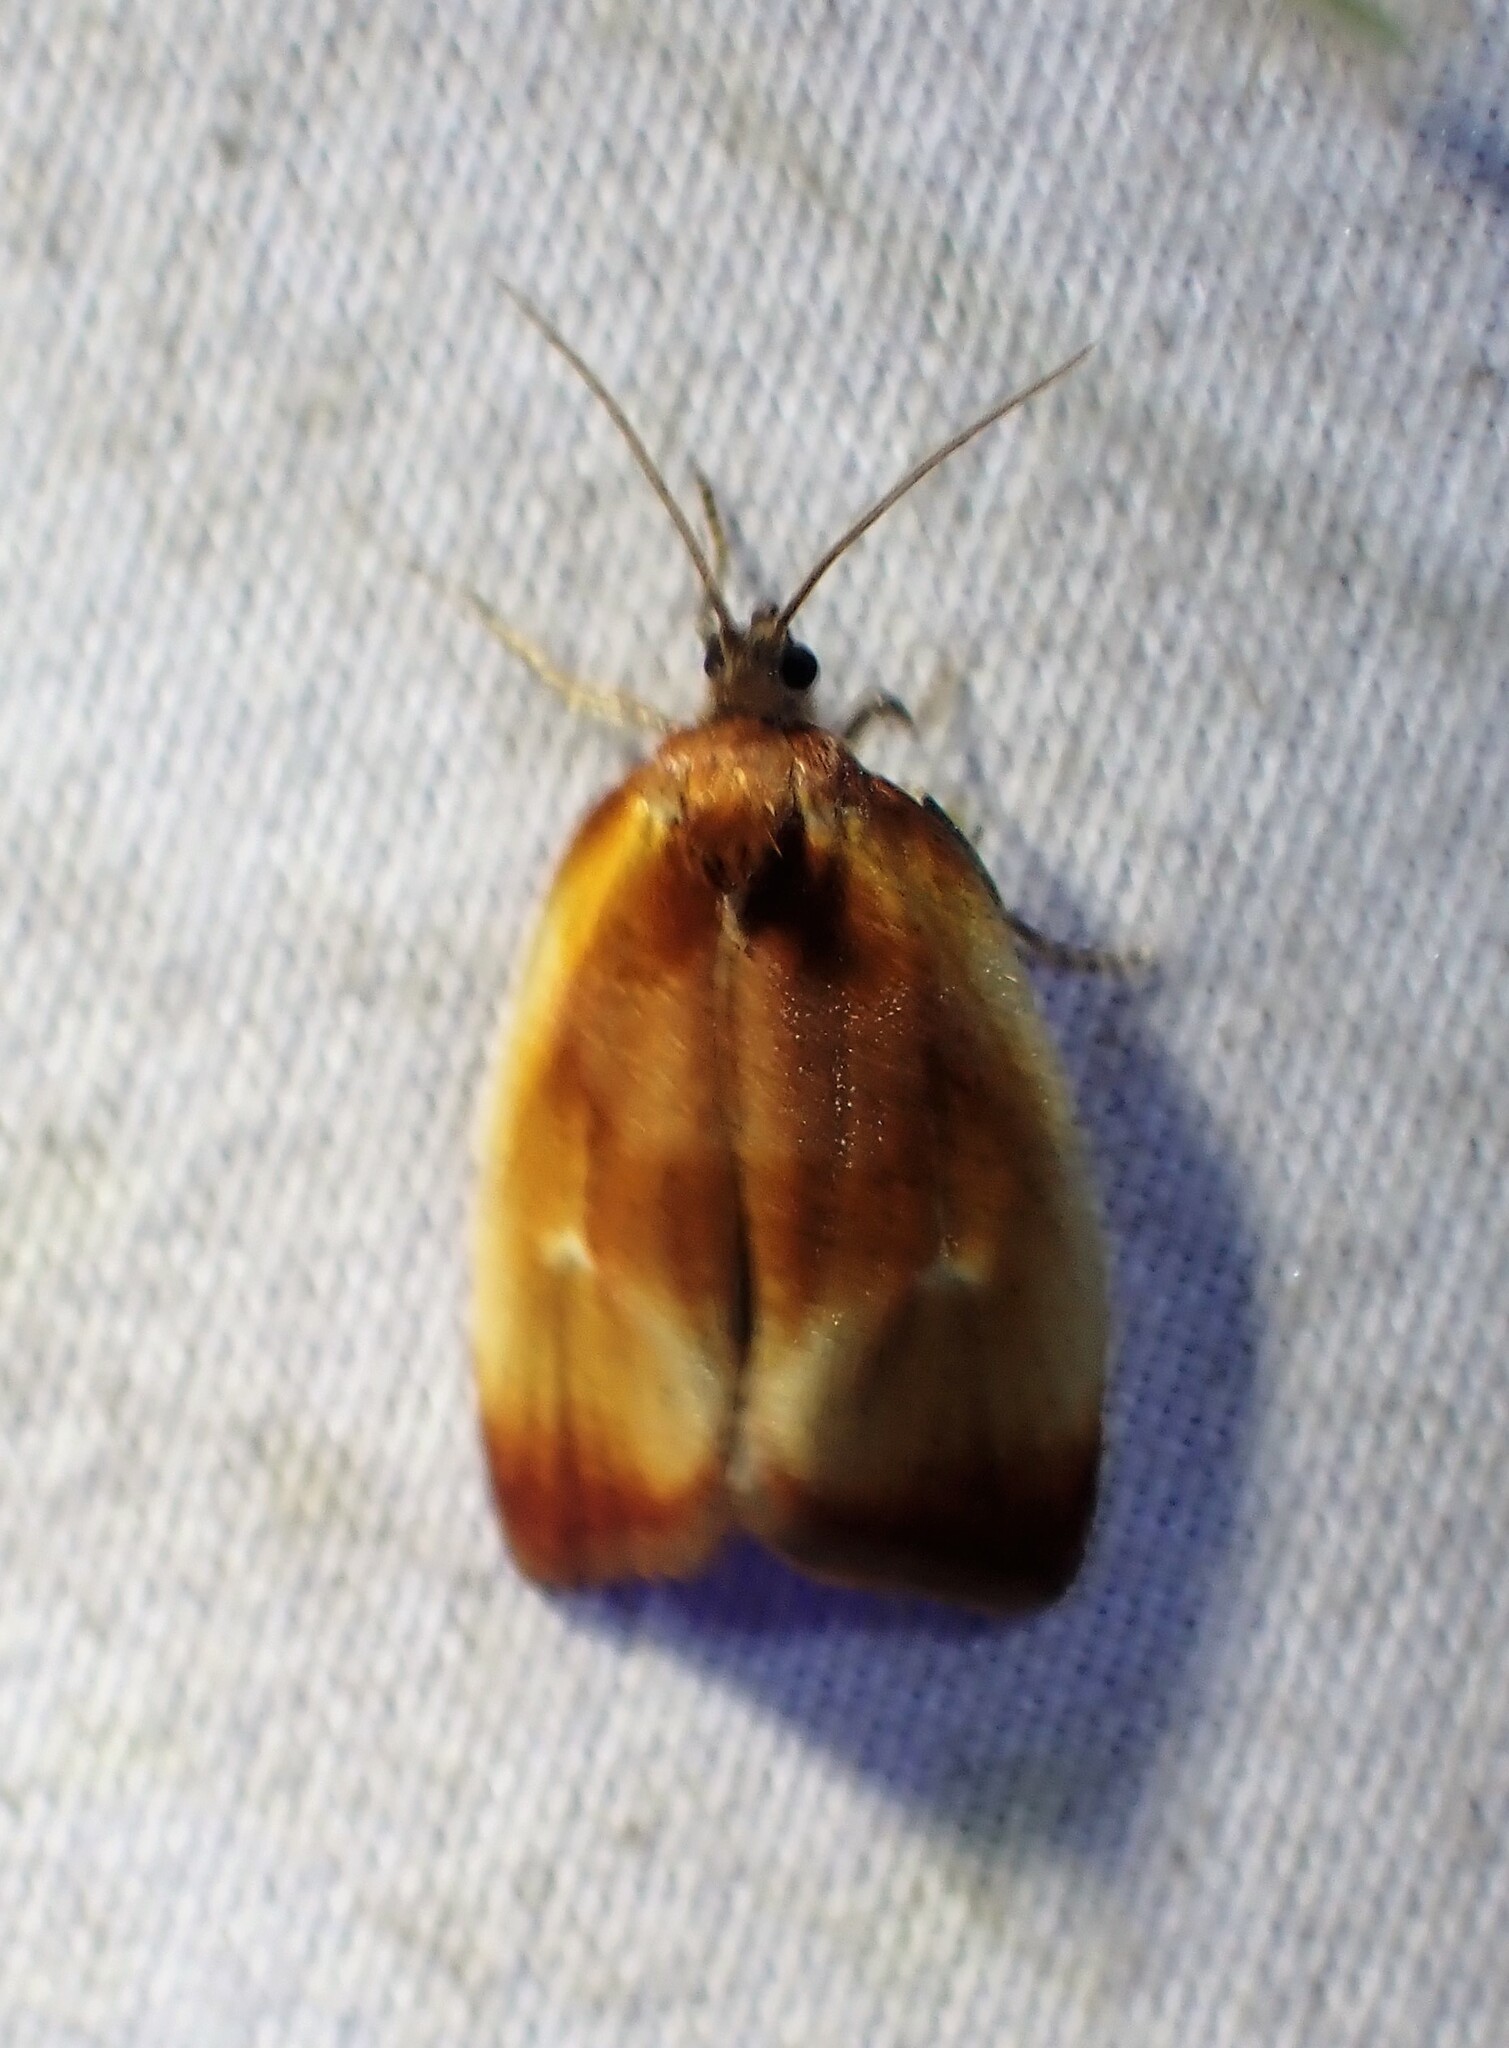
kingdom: Animalia
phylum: Arthropoda
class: Insecta
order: Lepidoptera
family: Tortricidae
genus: Eulia
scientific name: Eulia ministrana
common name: Brassy twist
